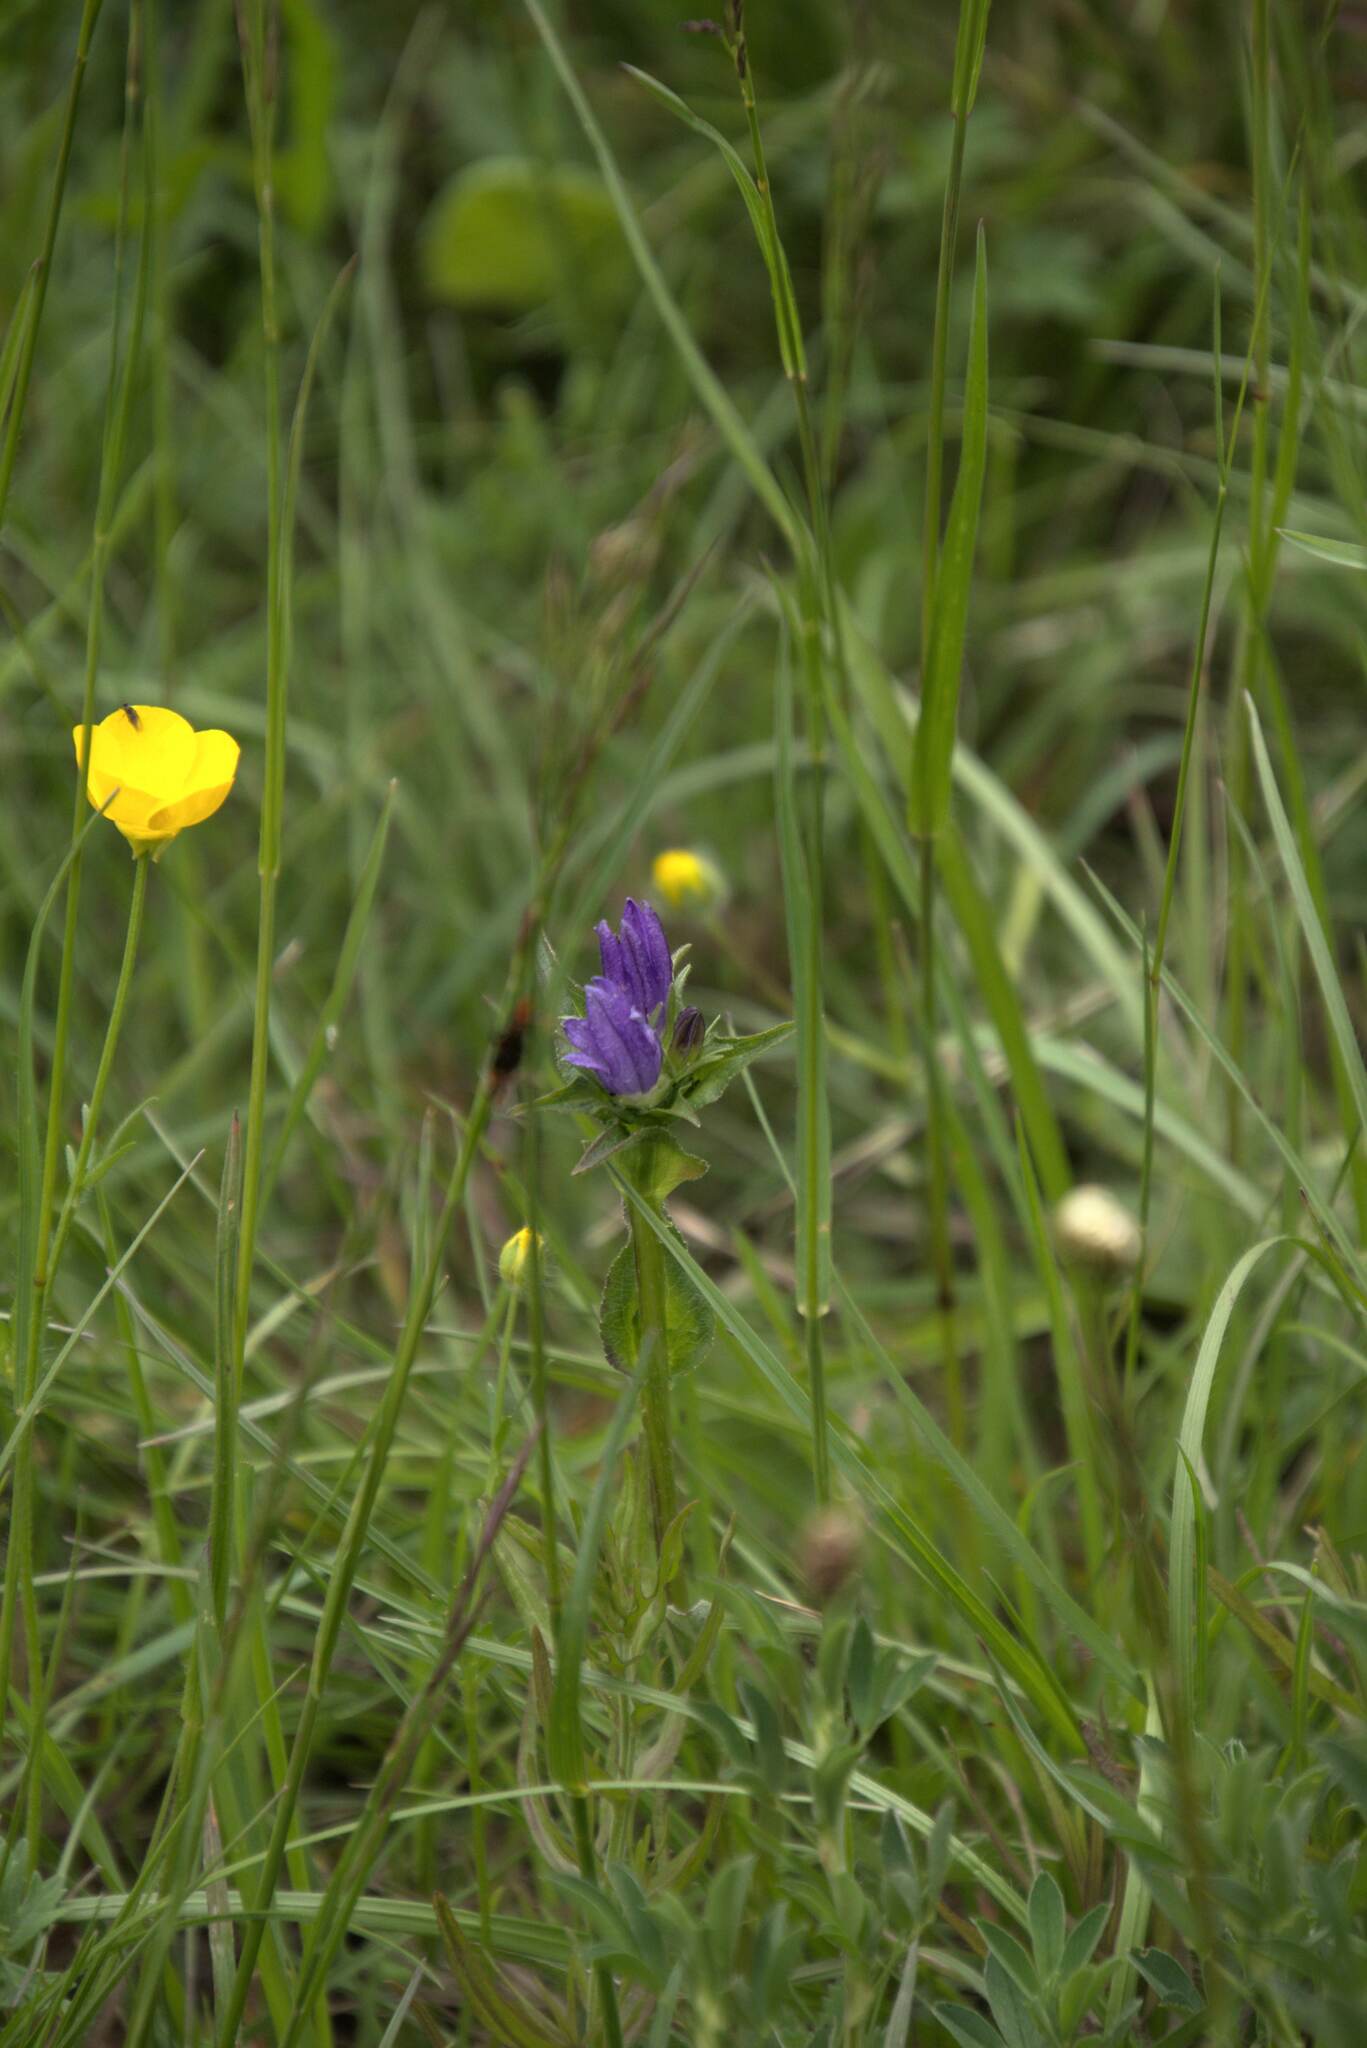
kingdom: Plantae
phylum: Tracheophyta
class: Magnoliopsida
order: Asterales
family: Campanulaceae
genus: Campanula
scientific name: Campanula glomerata
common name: Clustered bellflower
